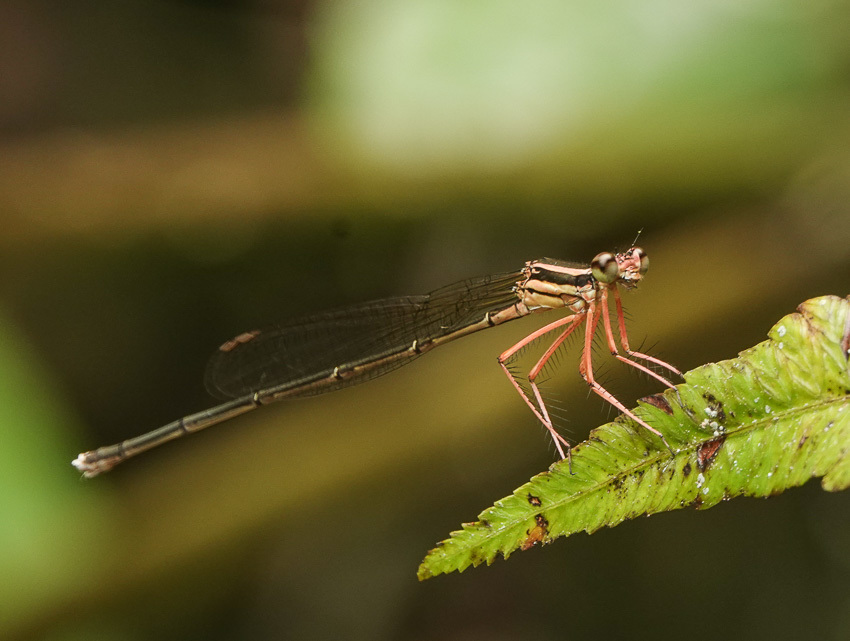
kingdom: Animalia
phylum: Arthropoda
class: Insecta
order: Odonata
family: Platycnemididae
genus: Pseudocopera
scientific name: Pseudocopera ciliata
